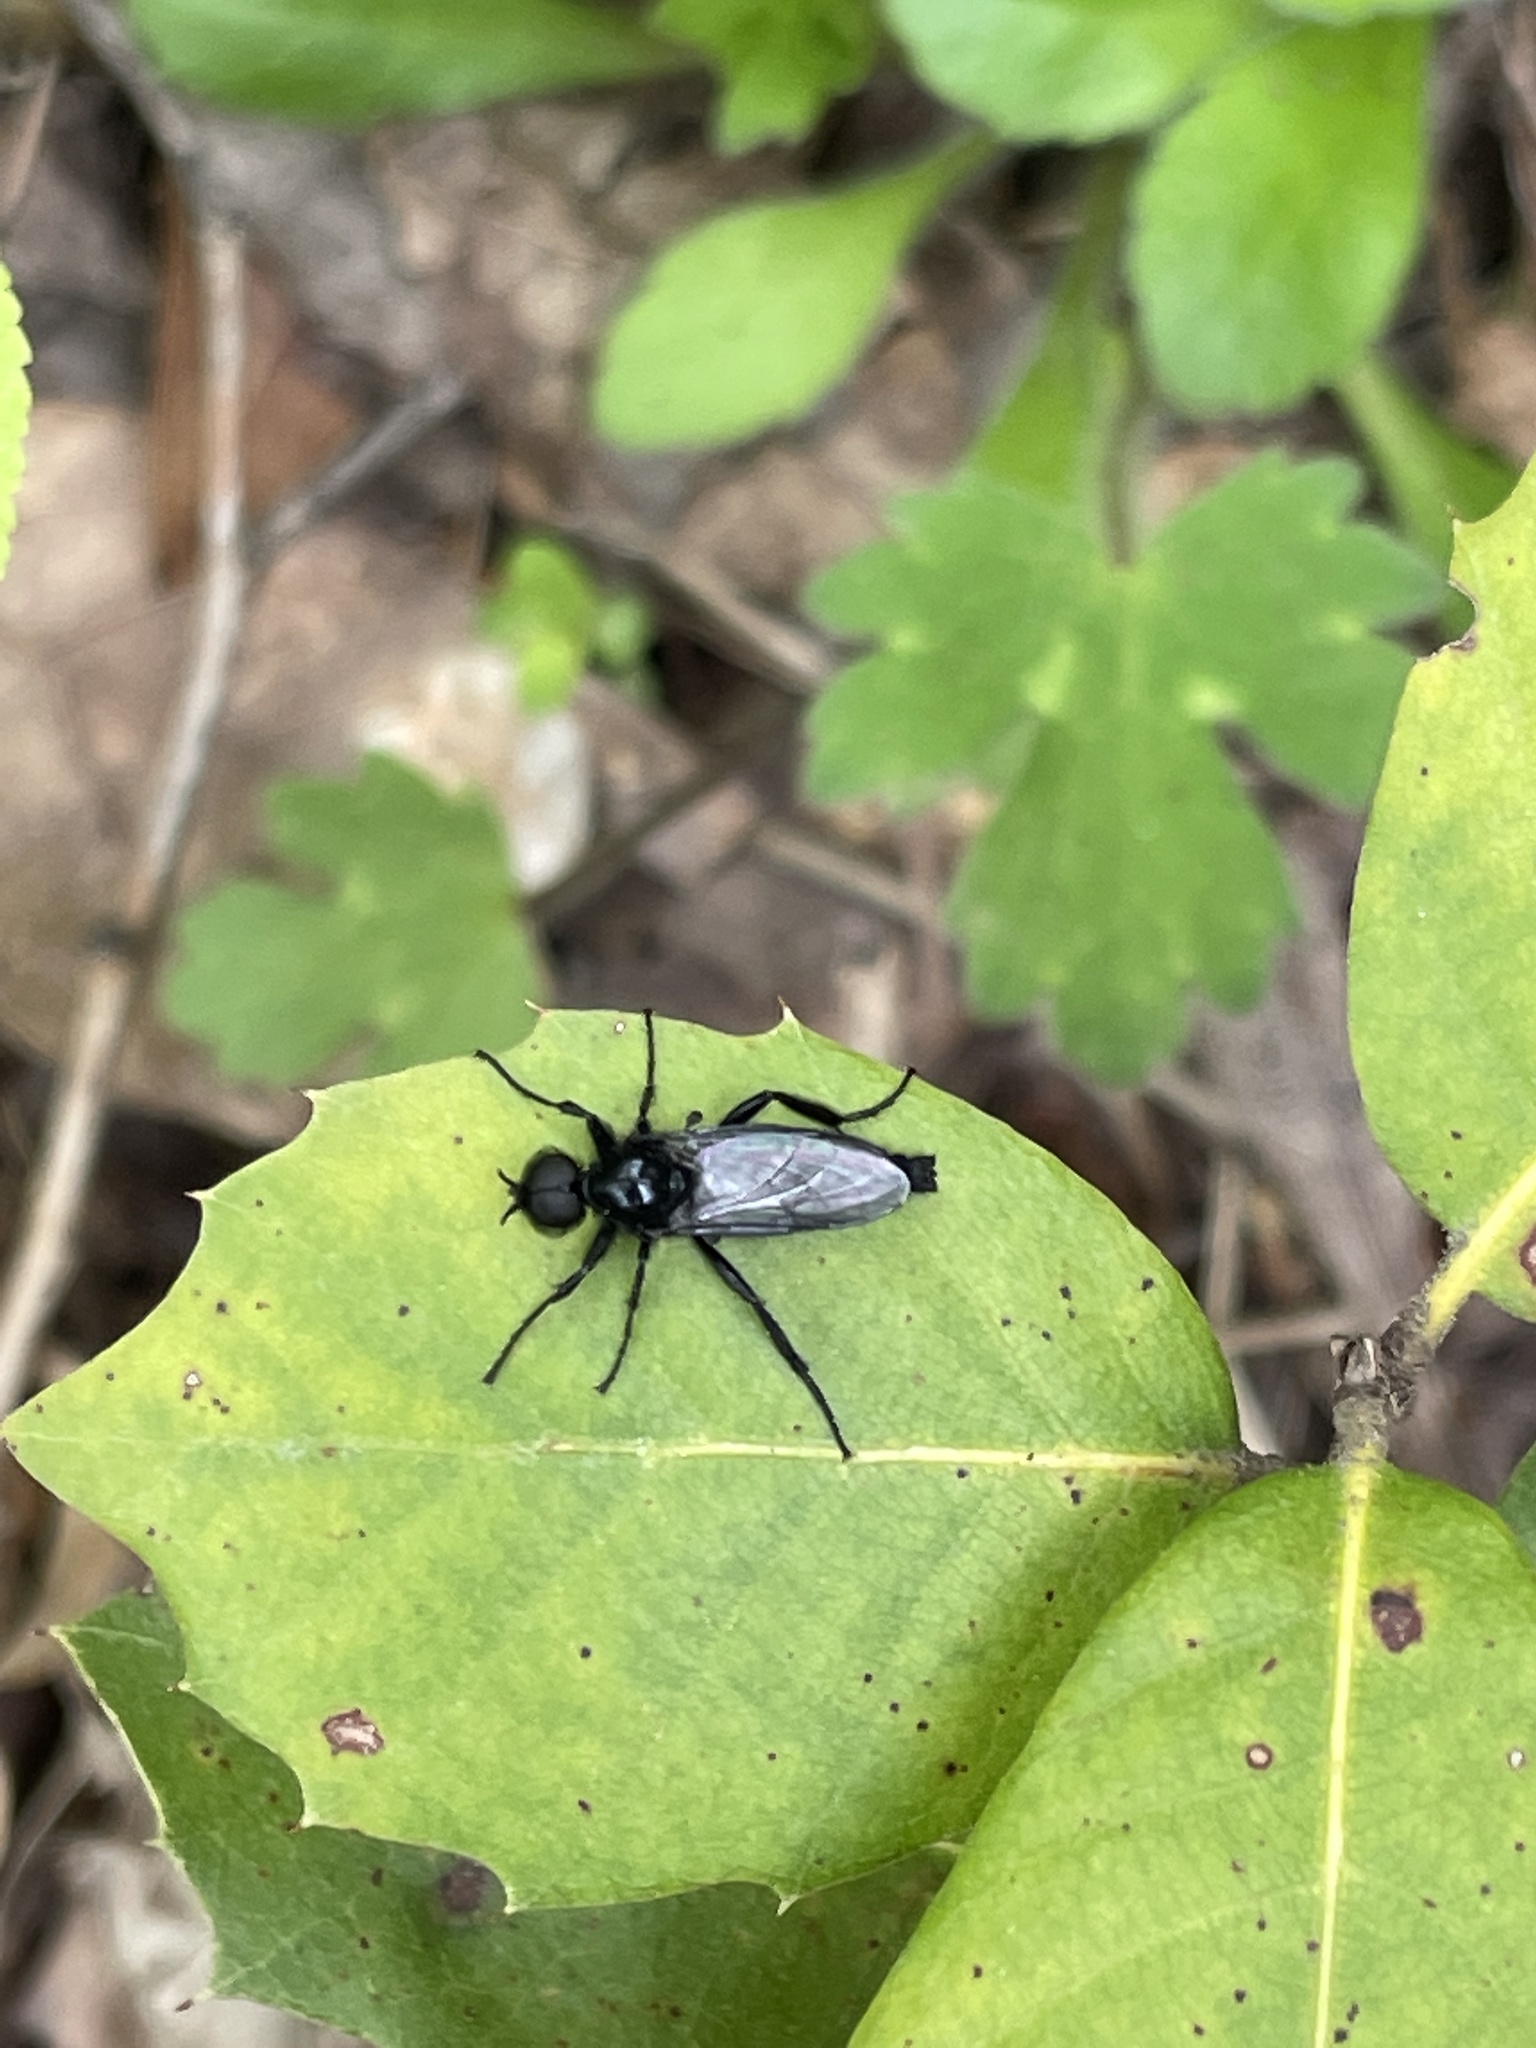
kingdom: Animalia
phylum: Arthropoda
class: Insecta
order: Diptera
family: Bibionidae
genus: Bibio
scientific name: Bibio
